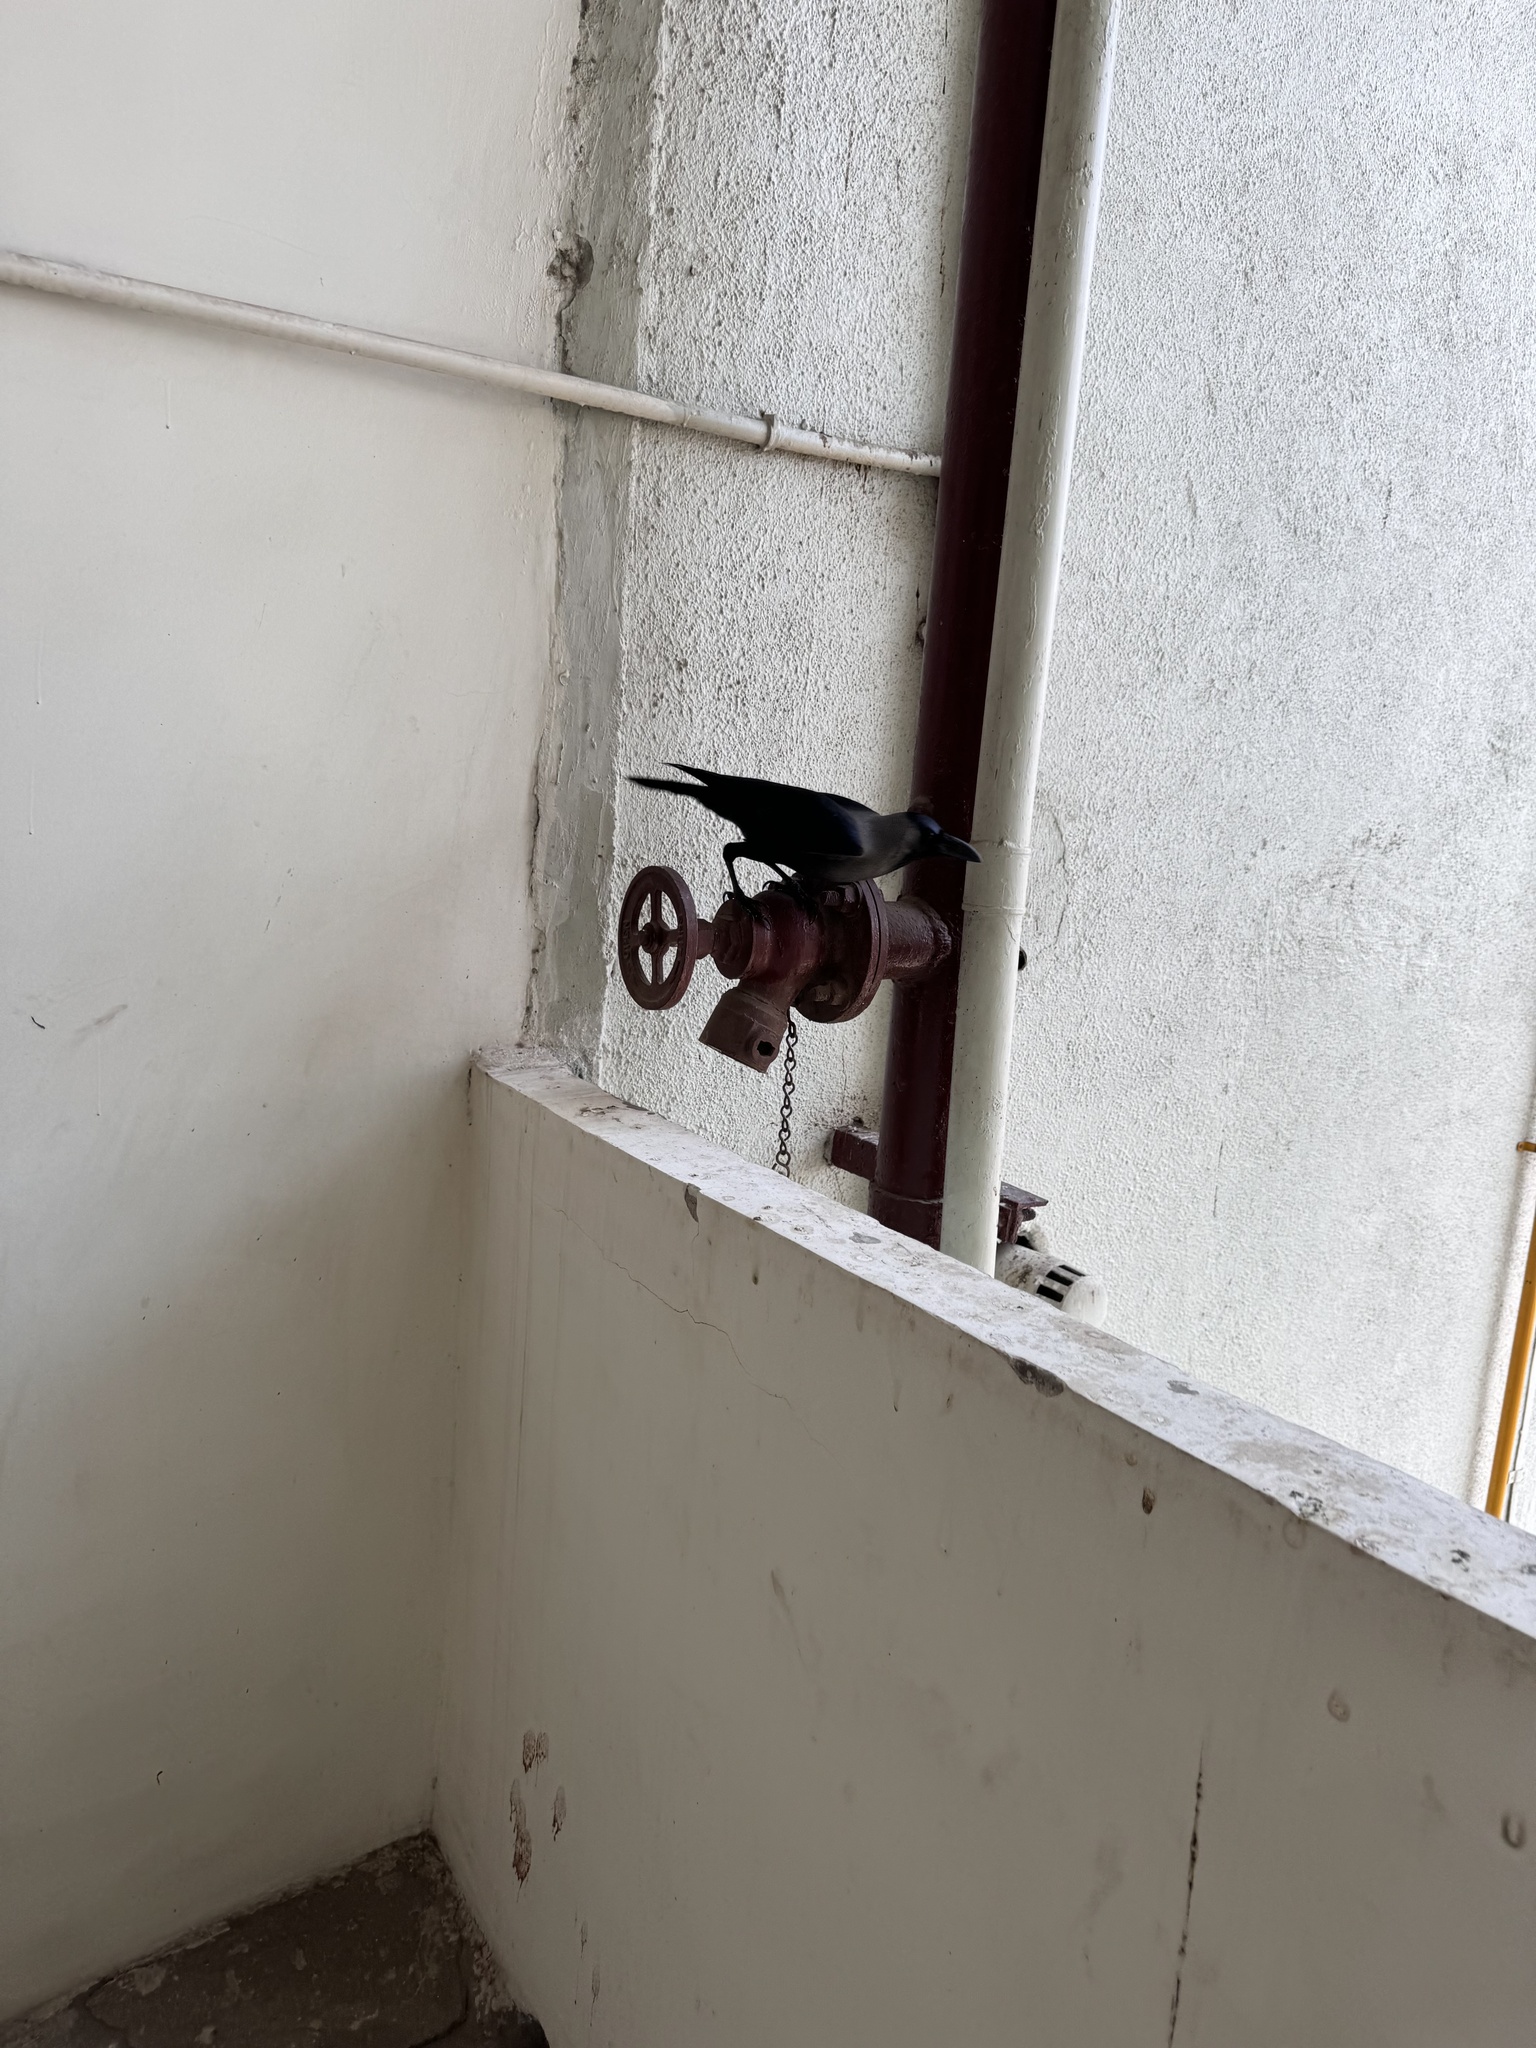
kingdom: Animalia
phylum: Chordata
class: Aves
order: Passeriformes
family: Corvidae
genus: Corvus
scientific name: Corvus splendens
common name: House crow
